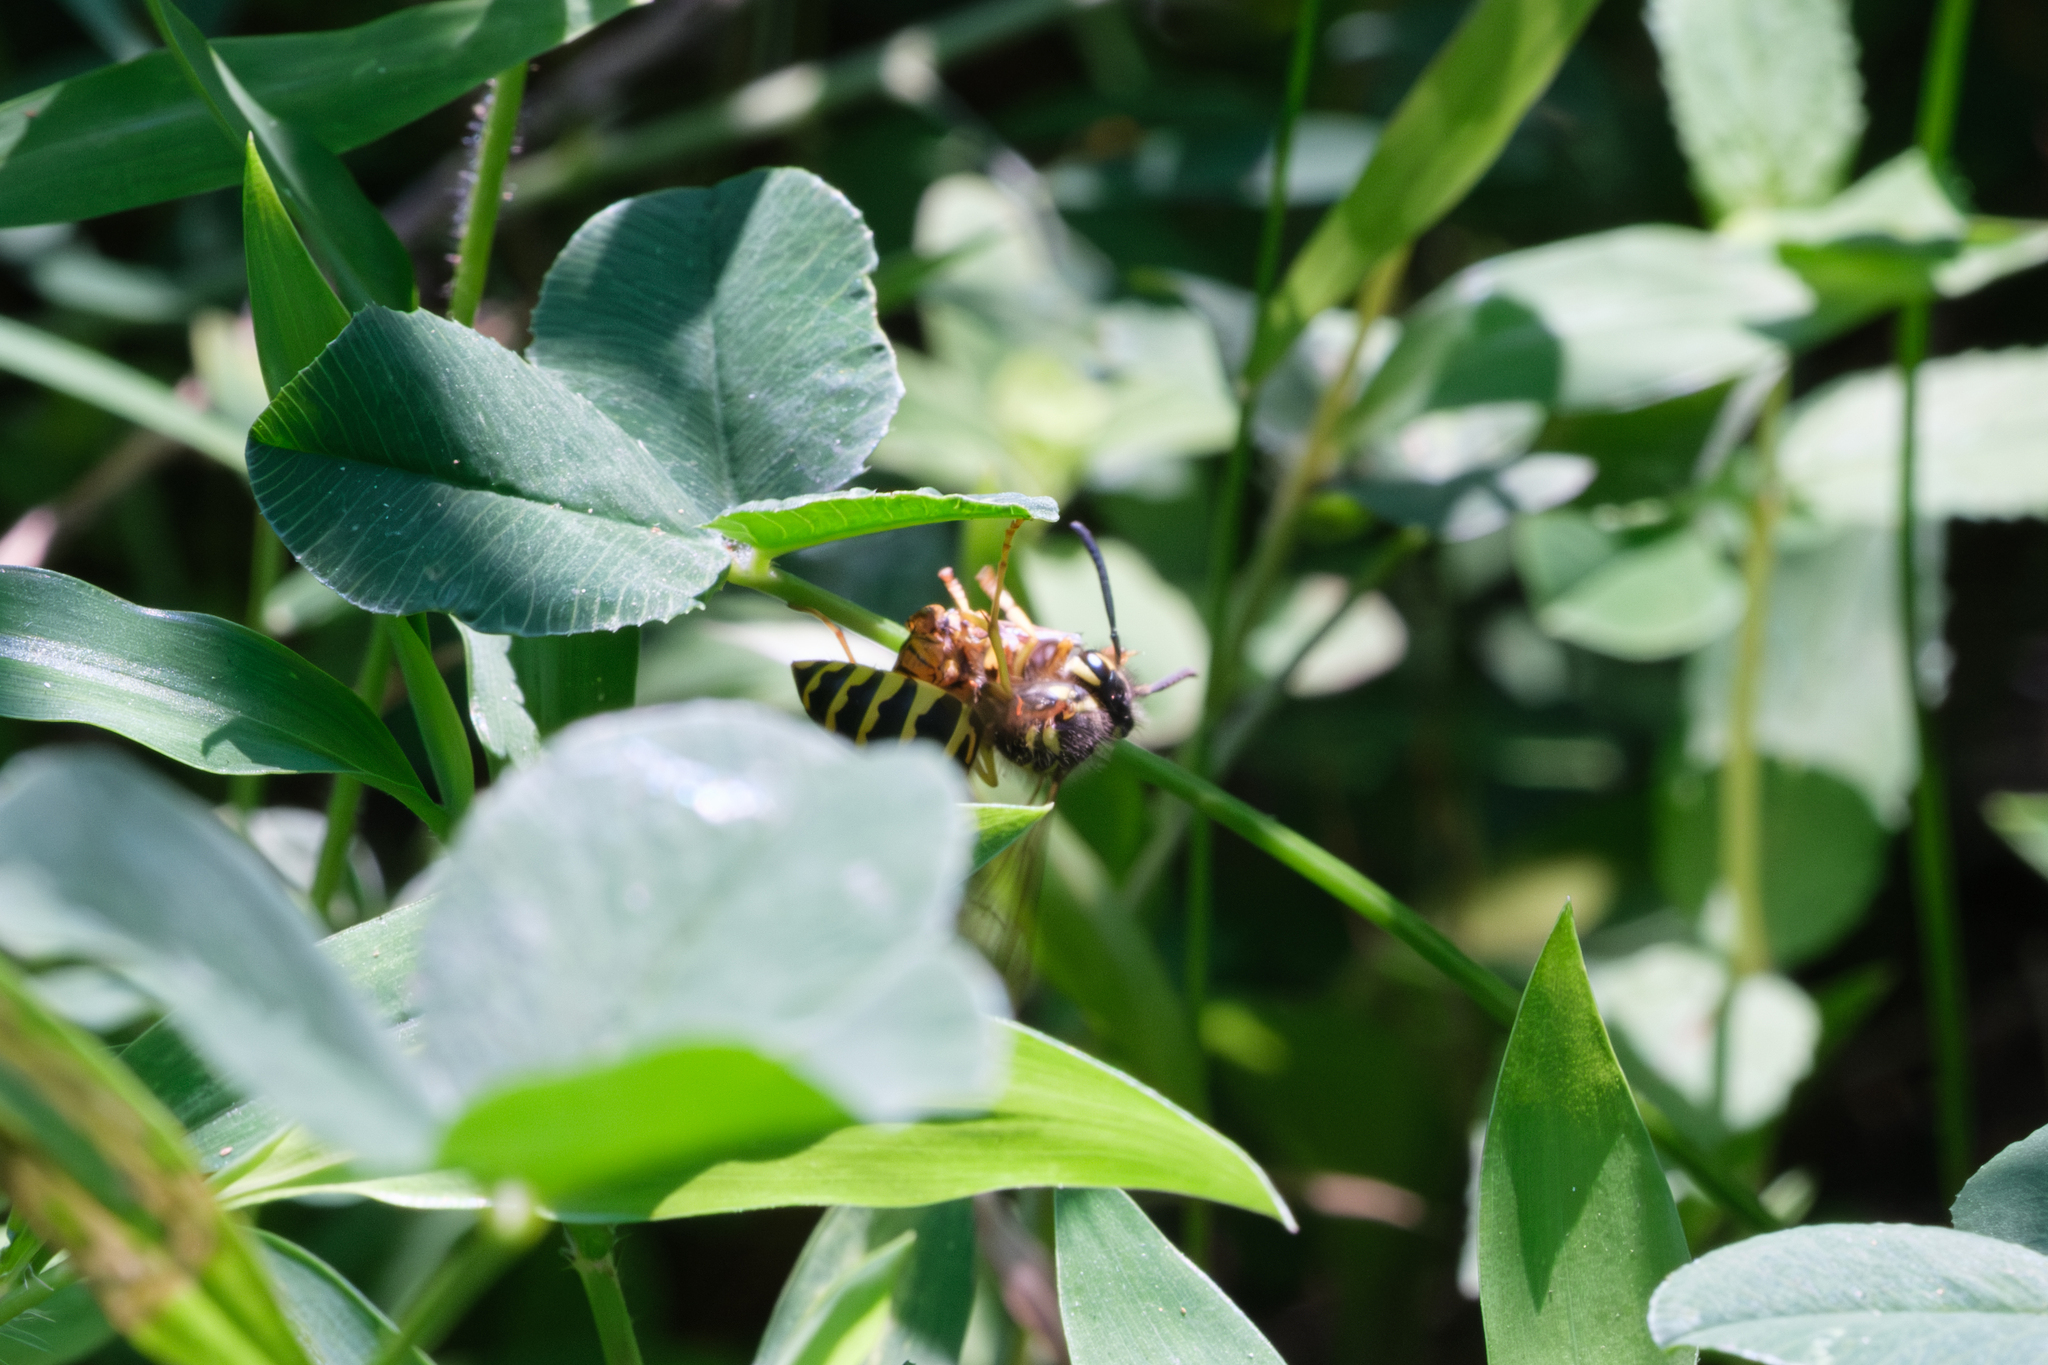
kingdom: Animalia
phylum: Arthropoda
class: Insecta
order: Hymenoptera
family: Vespidae
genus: Vespula
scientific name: Vespula maculifrons
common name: Eastern yellowjacket
